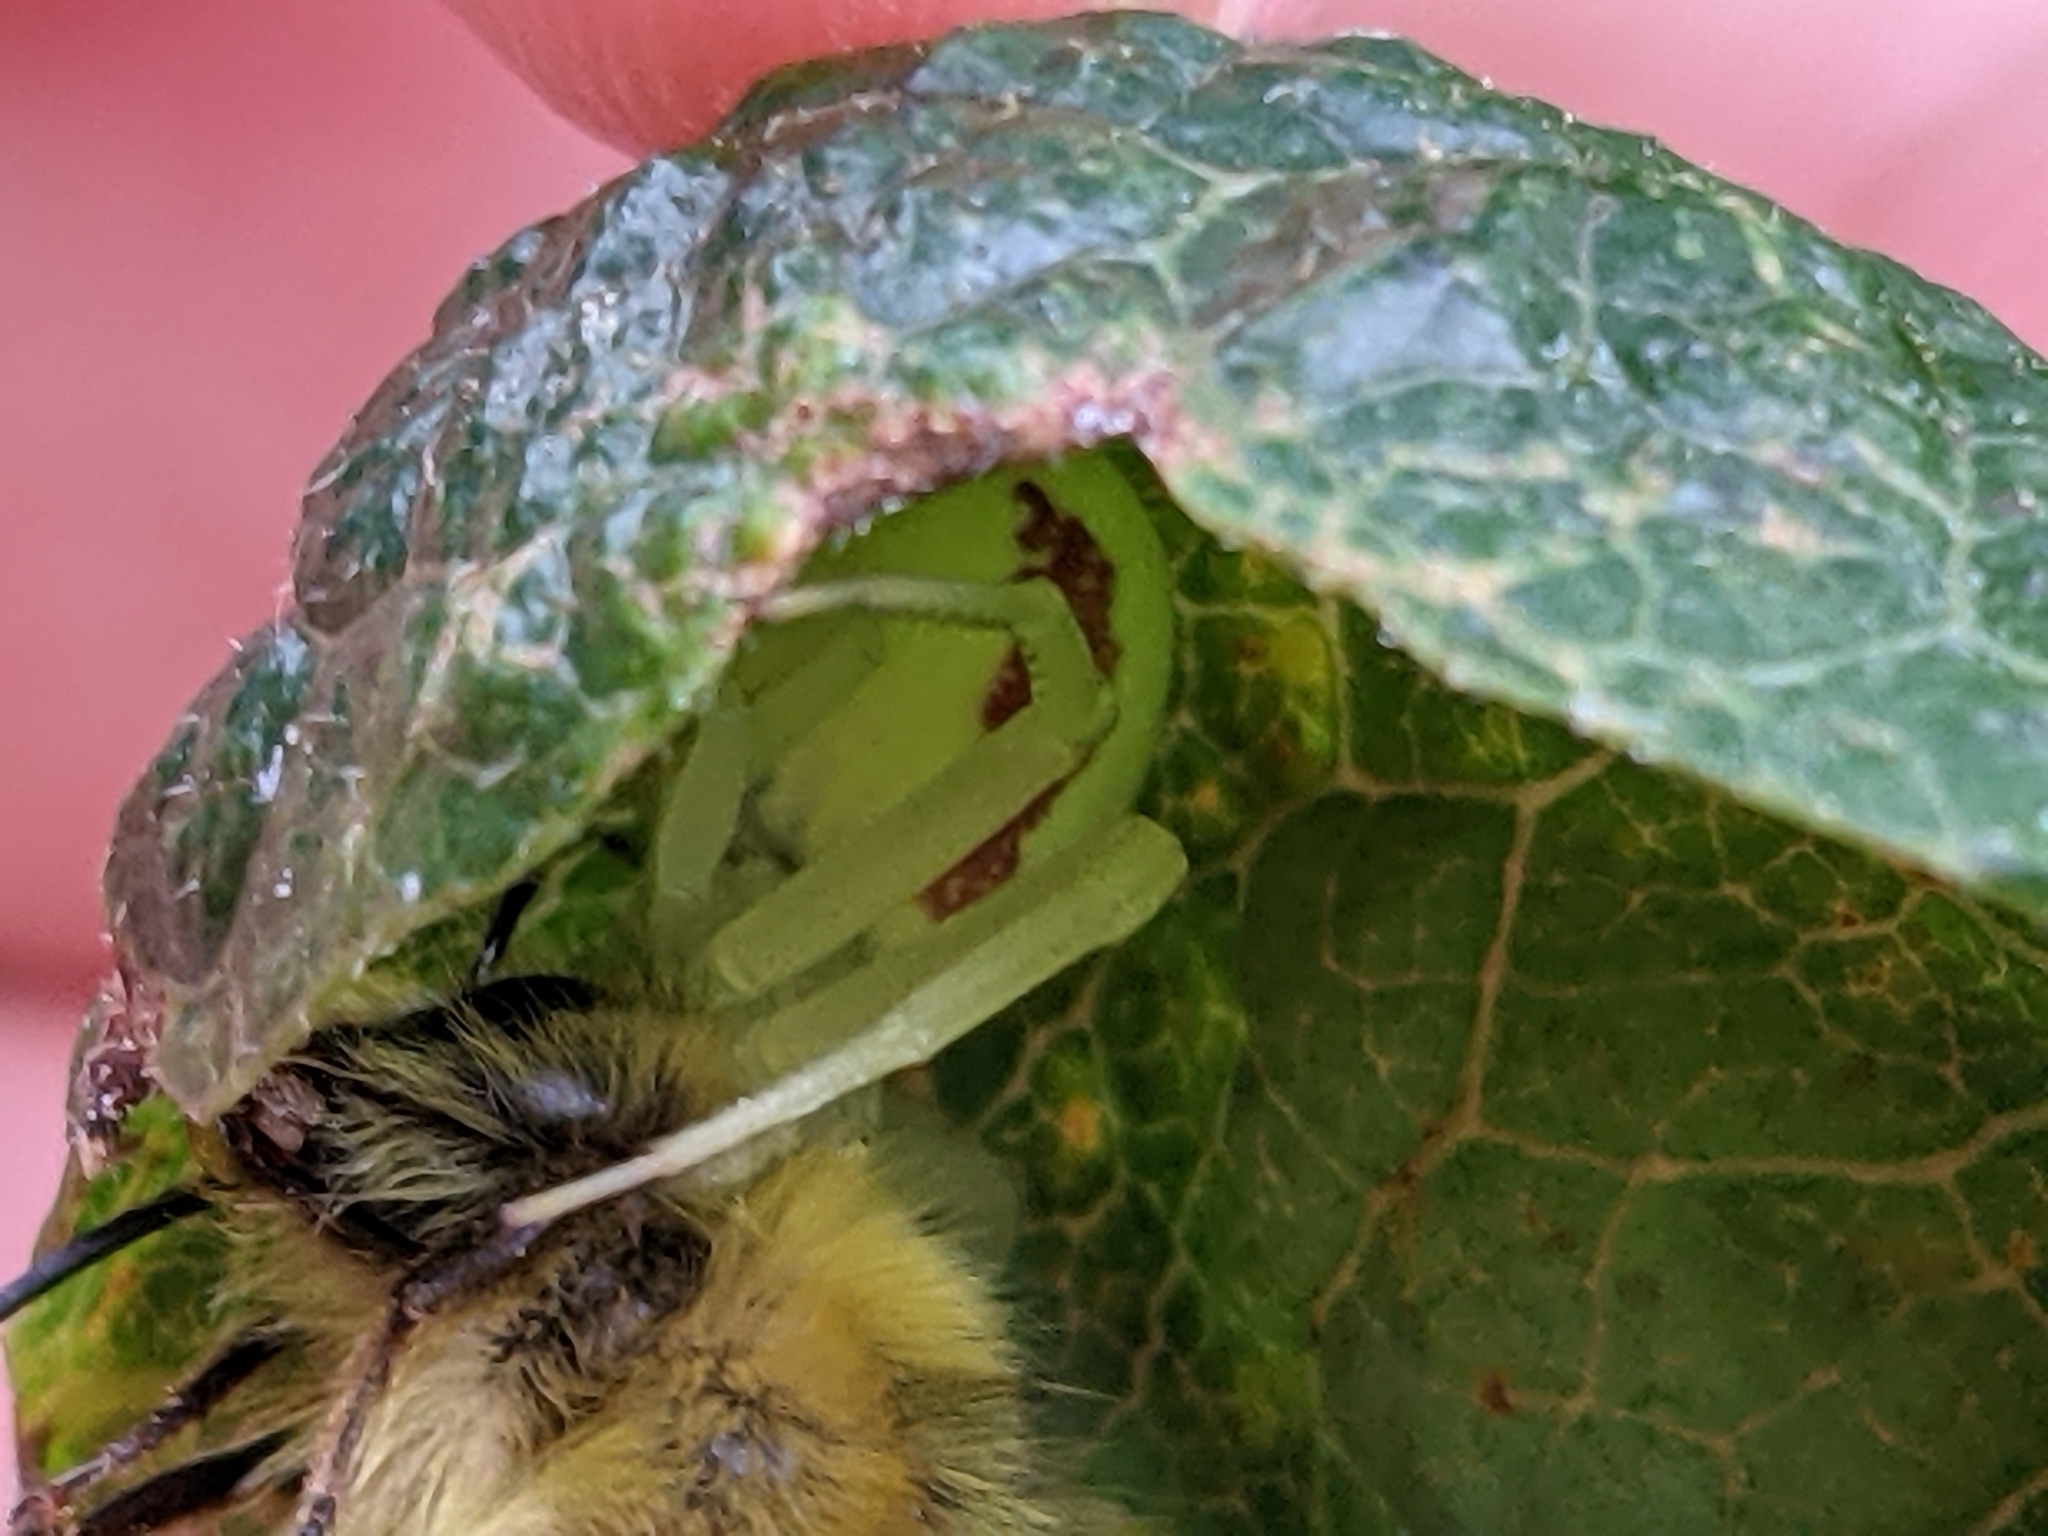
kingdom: Animalia
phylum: Arthropoda
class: Arachnida
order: Araneae
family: Thomisidae
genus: Misumena
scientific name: Misumena vatia
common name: Goldenrod crab spider
